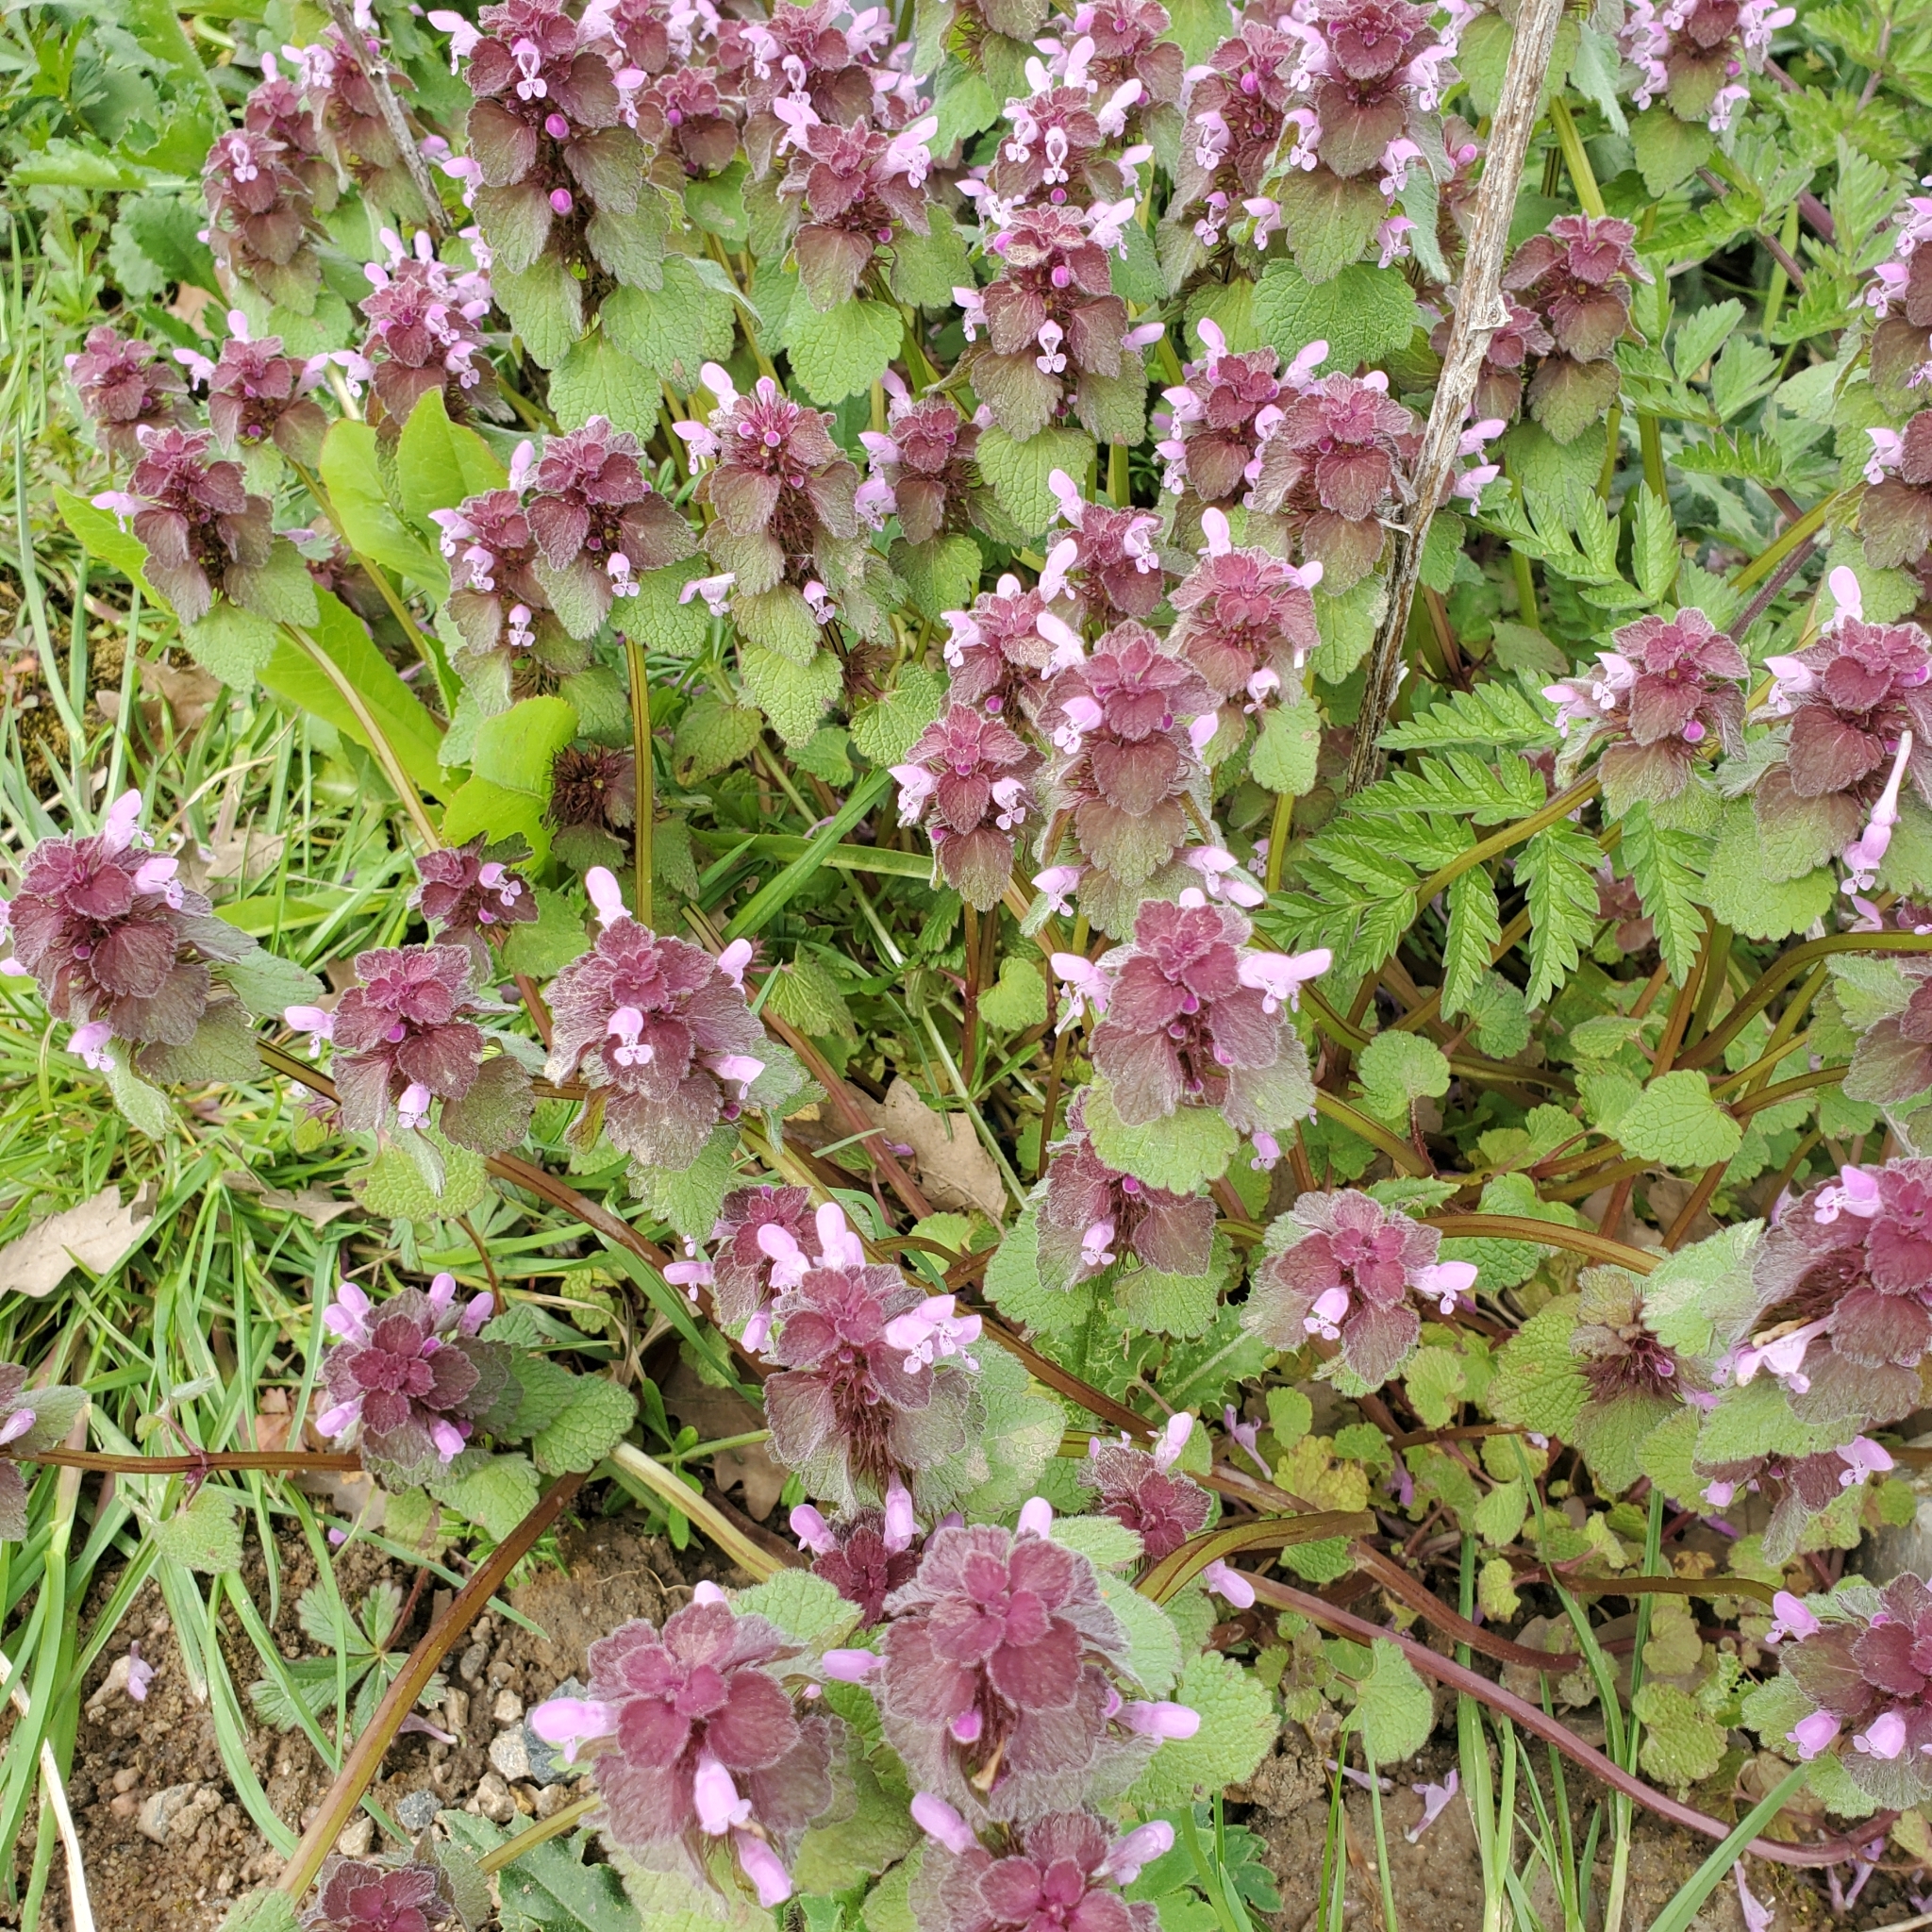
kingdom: Plantae
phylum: Tracheophyta
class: Magnoliopsida
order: Lamiales
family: Lamiaceae
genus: Lamium
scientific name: Lamium purpureum
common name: Red dead-nettle
